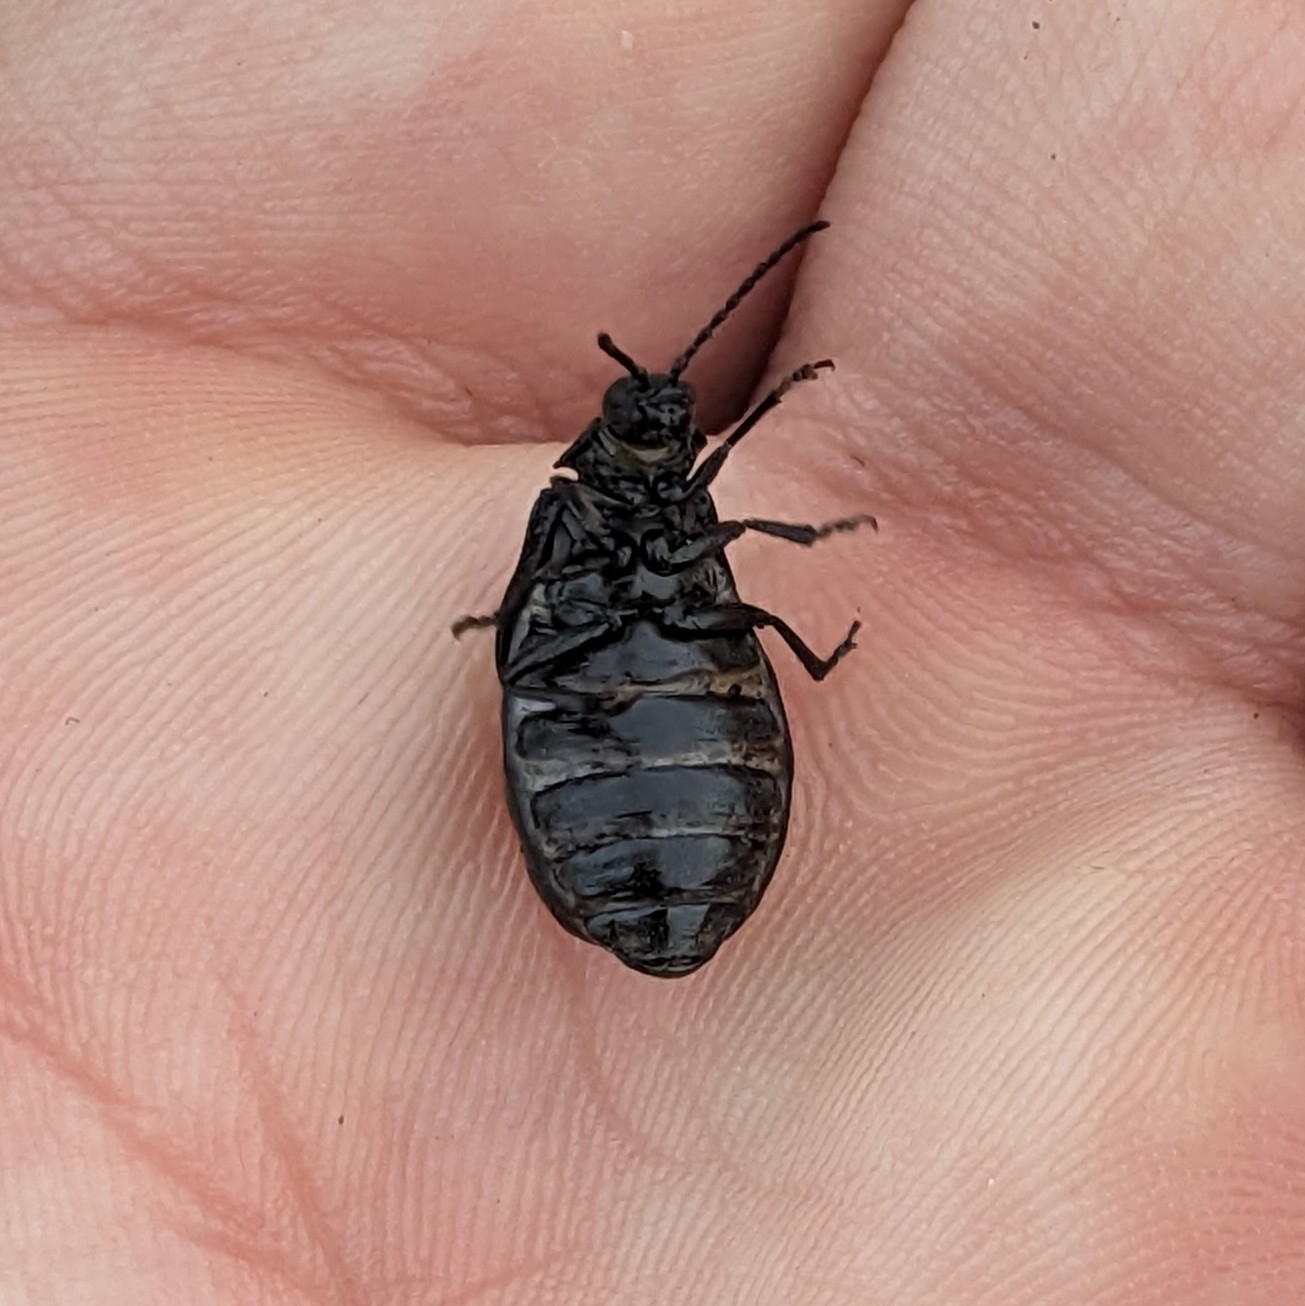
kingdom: Animalia
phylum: Arthropoda
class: Insecta
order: Coleoptera
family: Chrysomelidae
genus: Galeruca
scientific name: Galeruca tanaceti
